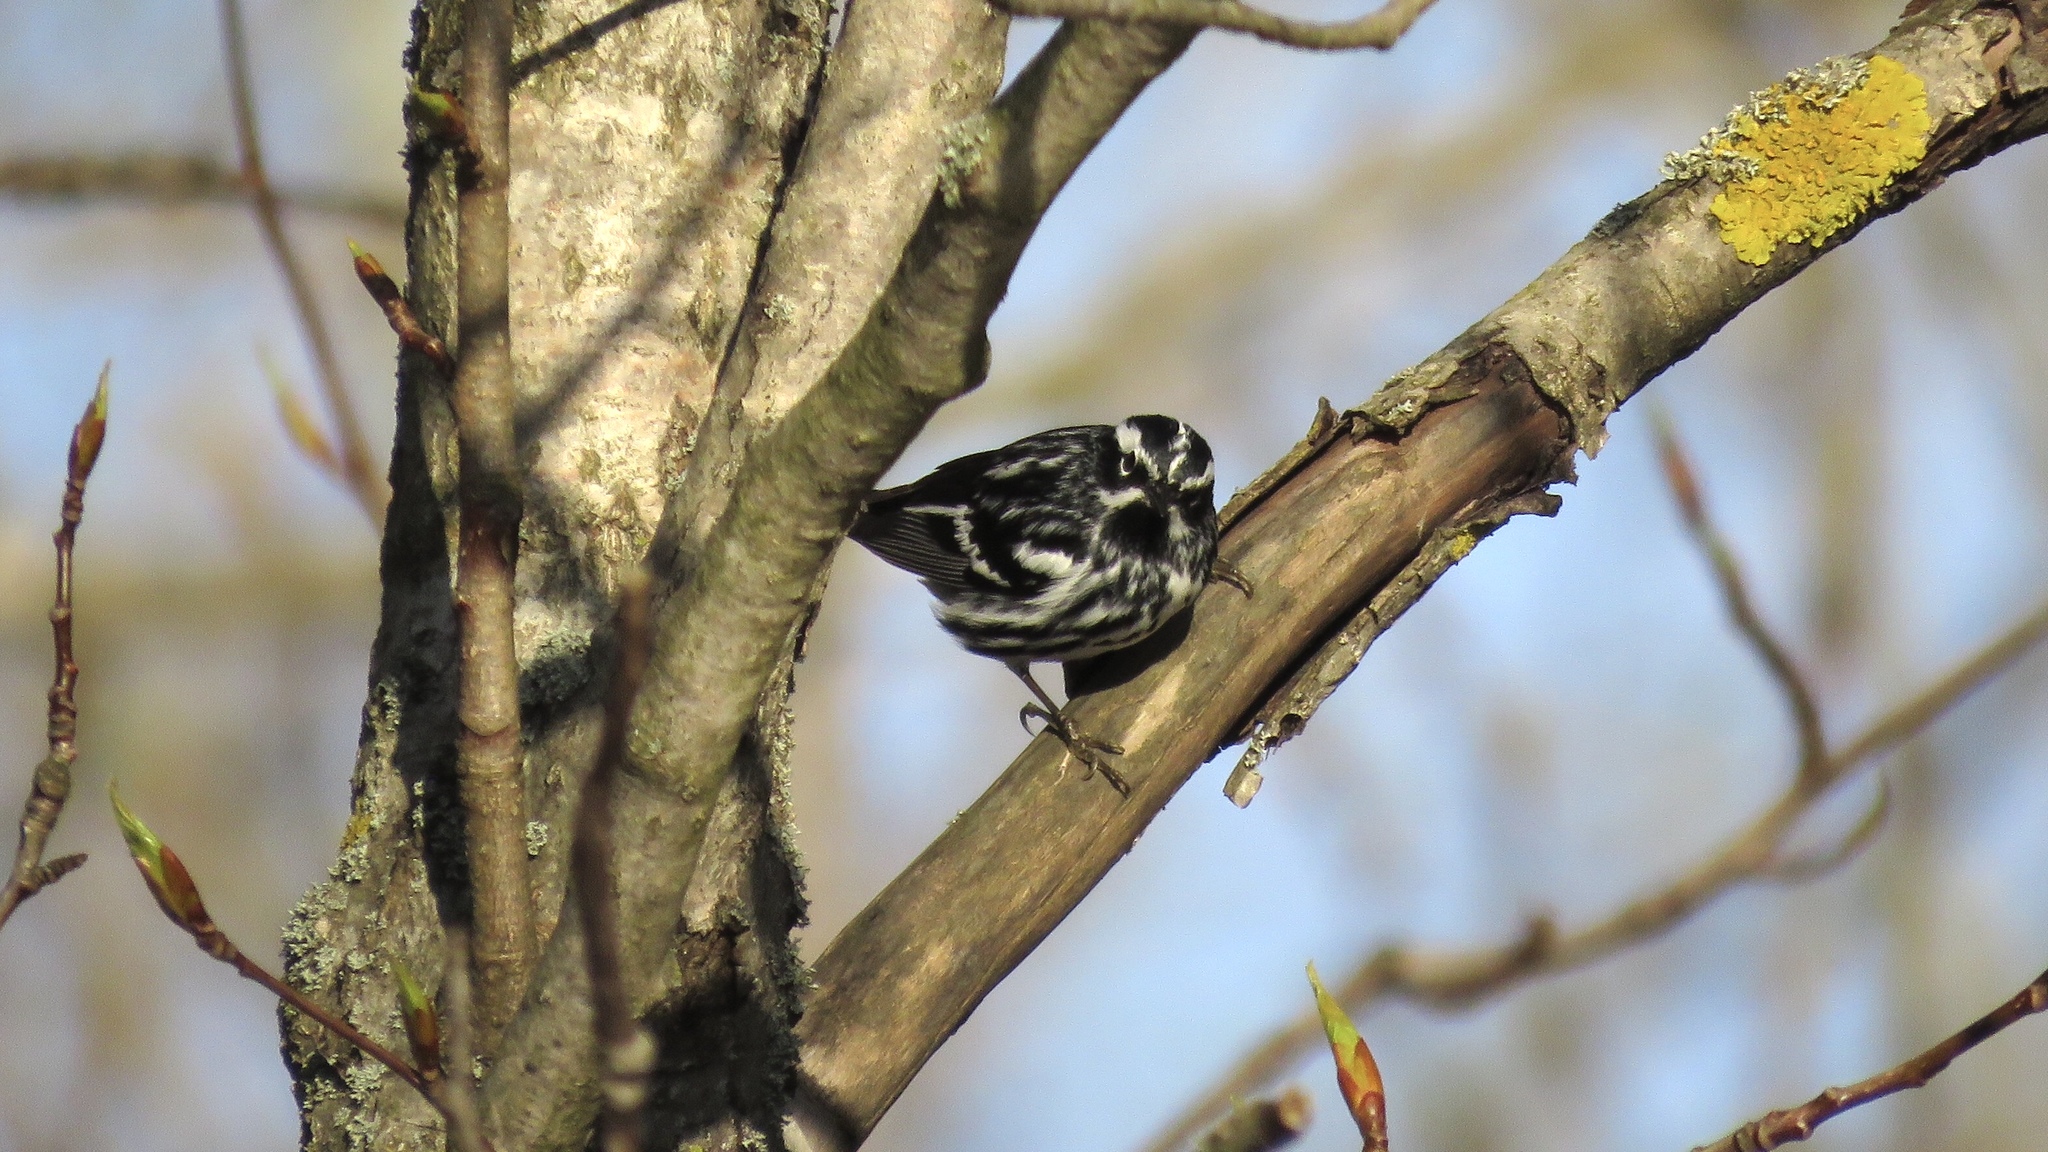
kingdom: Animalia
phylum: Chordata
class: Aves
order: Passeriformes
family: Parulidae
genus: Mniotilta
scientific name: Mniotilta varia
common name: Black-and-white warbler
